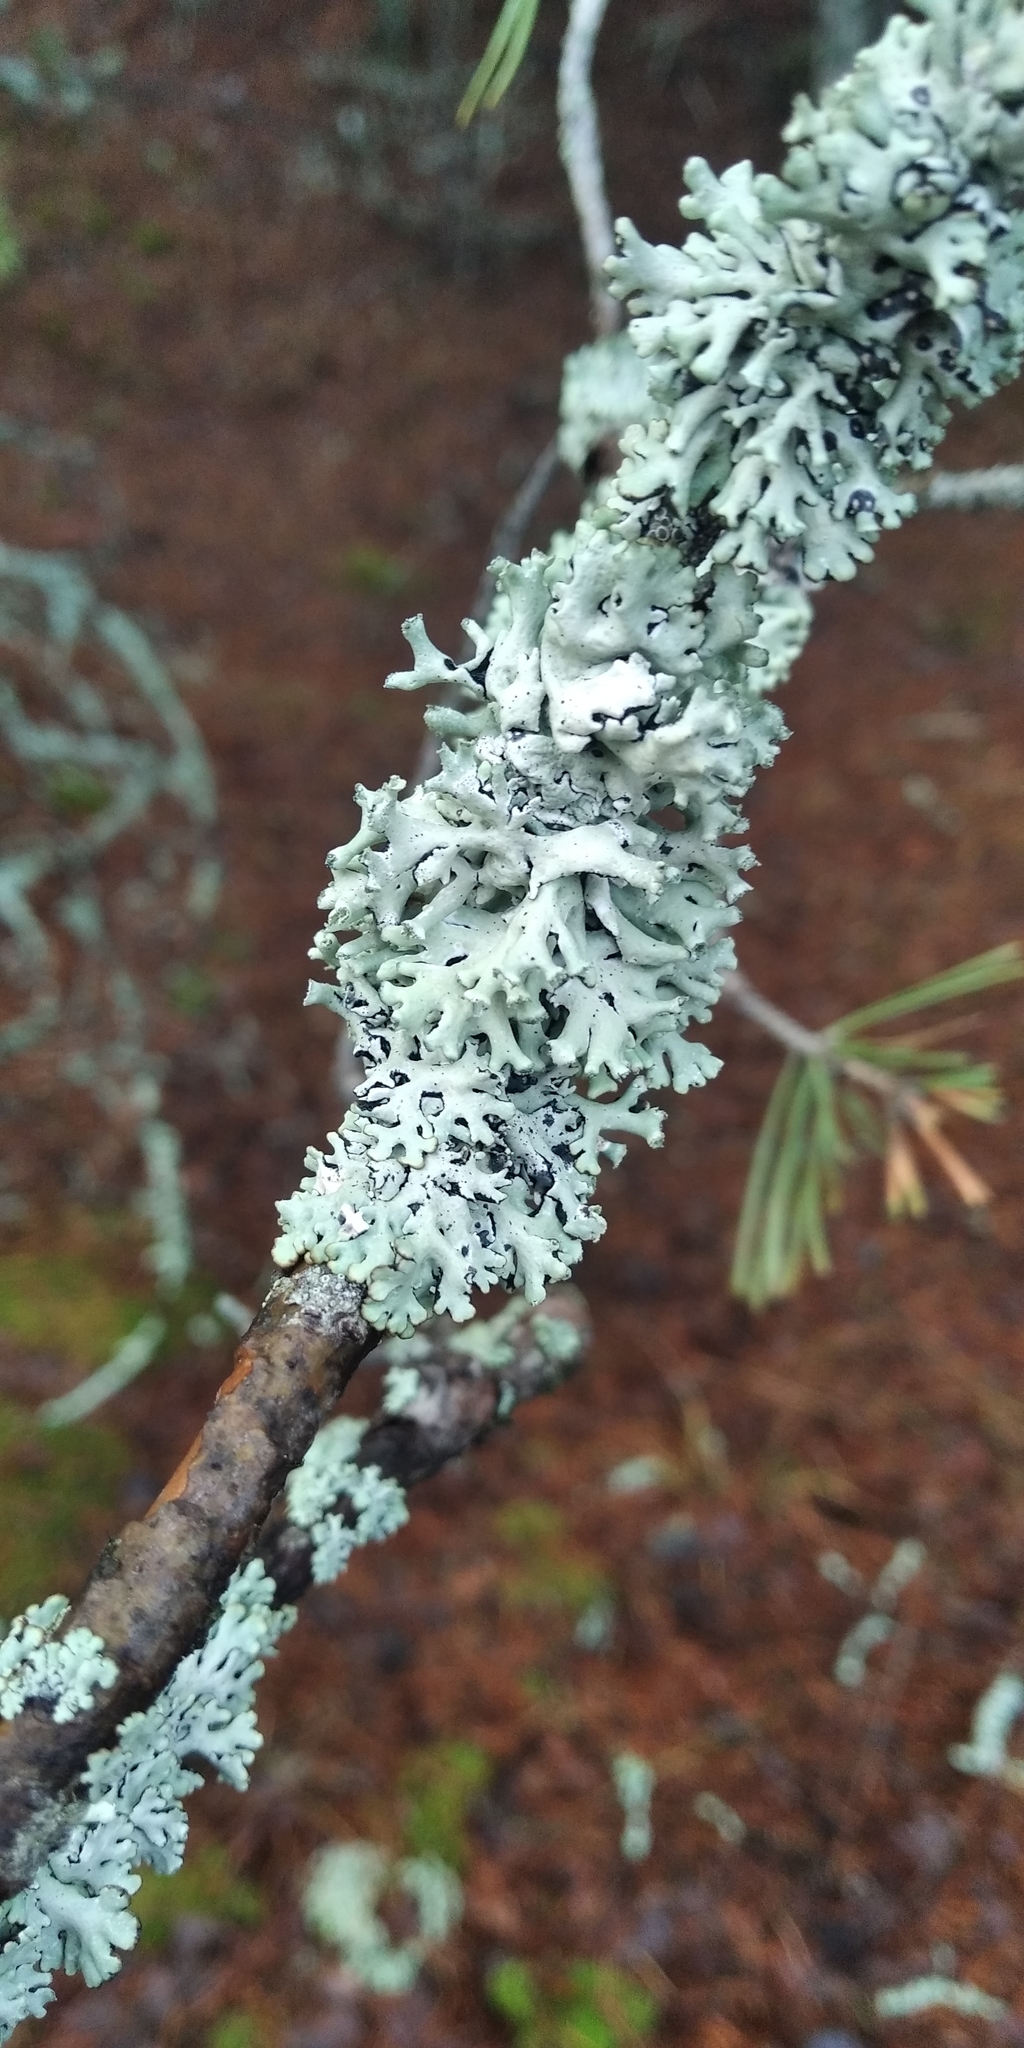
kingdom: Fungi
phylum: Ascomycota
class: Lecanoromycetes
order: Lecanorales
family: Parmeliaceae
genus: Hypogymnia
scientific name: Hypogymnia physodes
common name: Dark crottle
